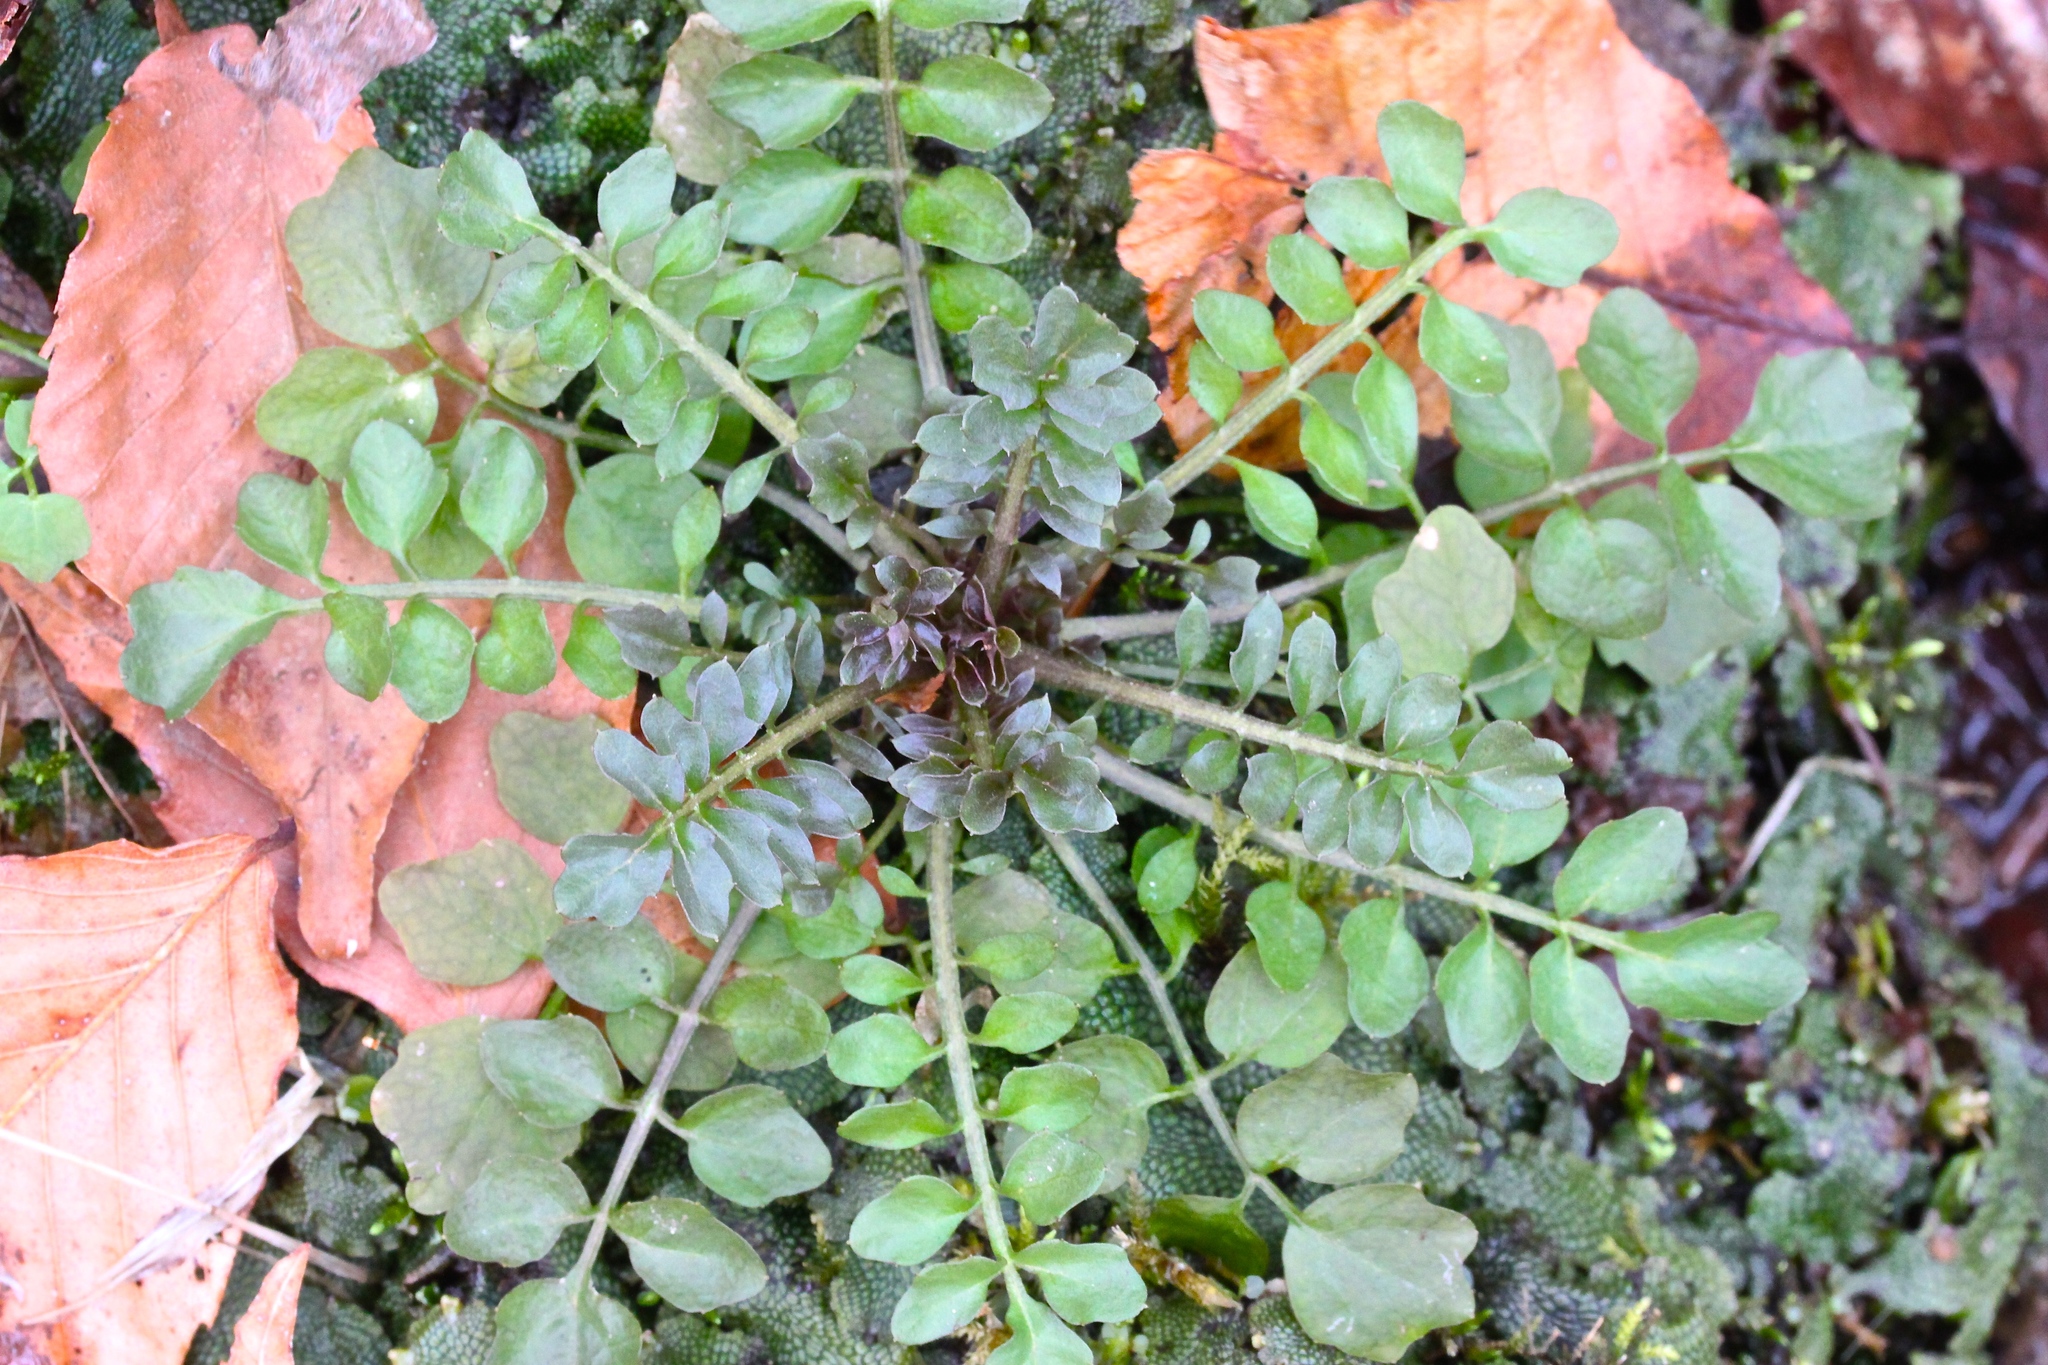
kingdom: Plantae
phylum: Tracheophyta
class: Magnoliopsida
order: Brassicales
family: Brassicaceae
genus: Cardamine
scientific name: Cardamine hirsuta
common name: Hairy bittercress
